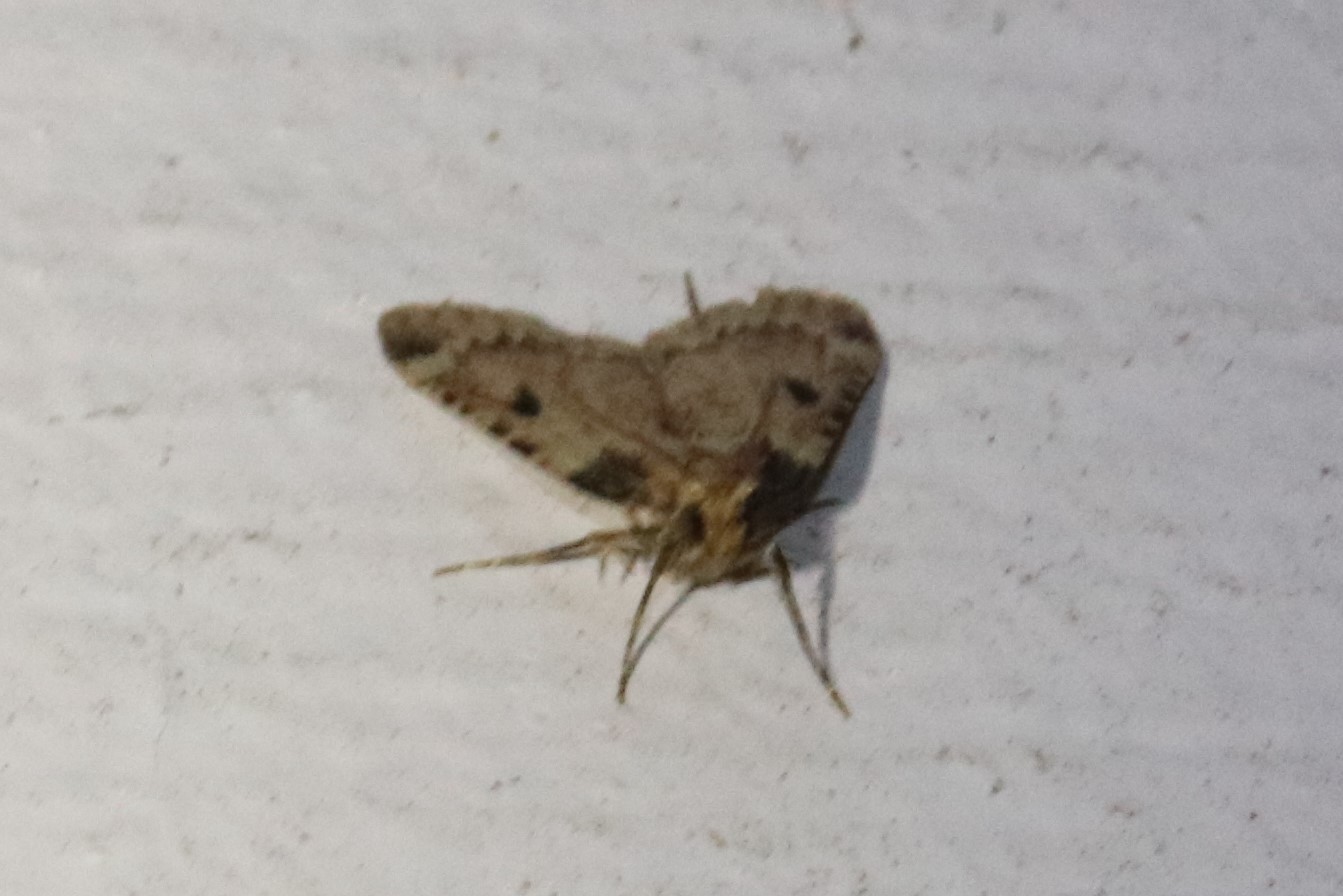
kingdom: Animalia
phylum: Arthropoda
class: Insecta
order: Lepidoptera
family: Pyralidae
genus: Aglossa
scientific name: Aglossa costiferalis
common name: Calico pyralid moth
